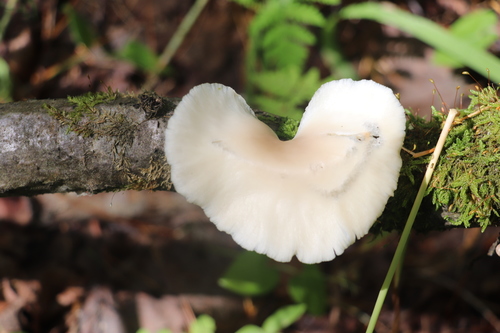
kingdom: Fungi
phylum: Basidiomycota
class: Agaricomycetes
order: Agaricales
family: Pleurotaceae
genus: Pleurotus
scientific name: Pleurotus pulmonarius
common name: Pale oyster
